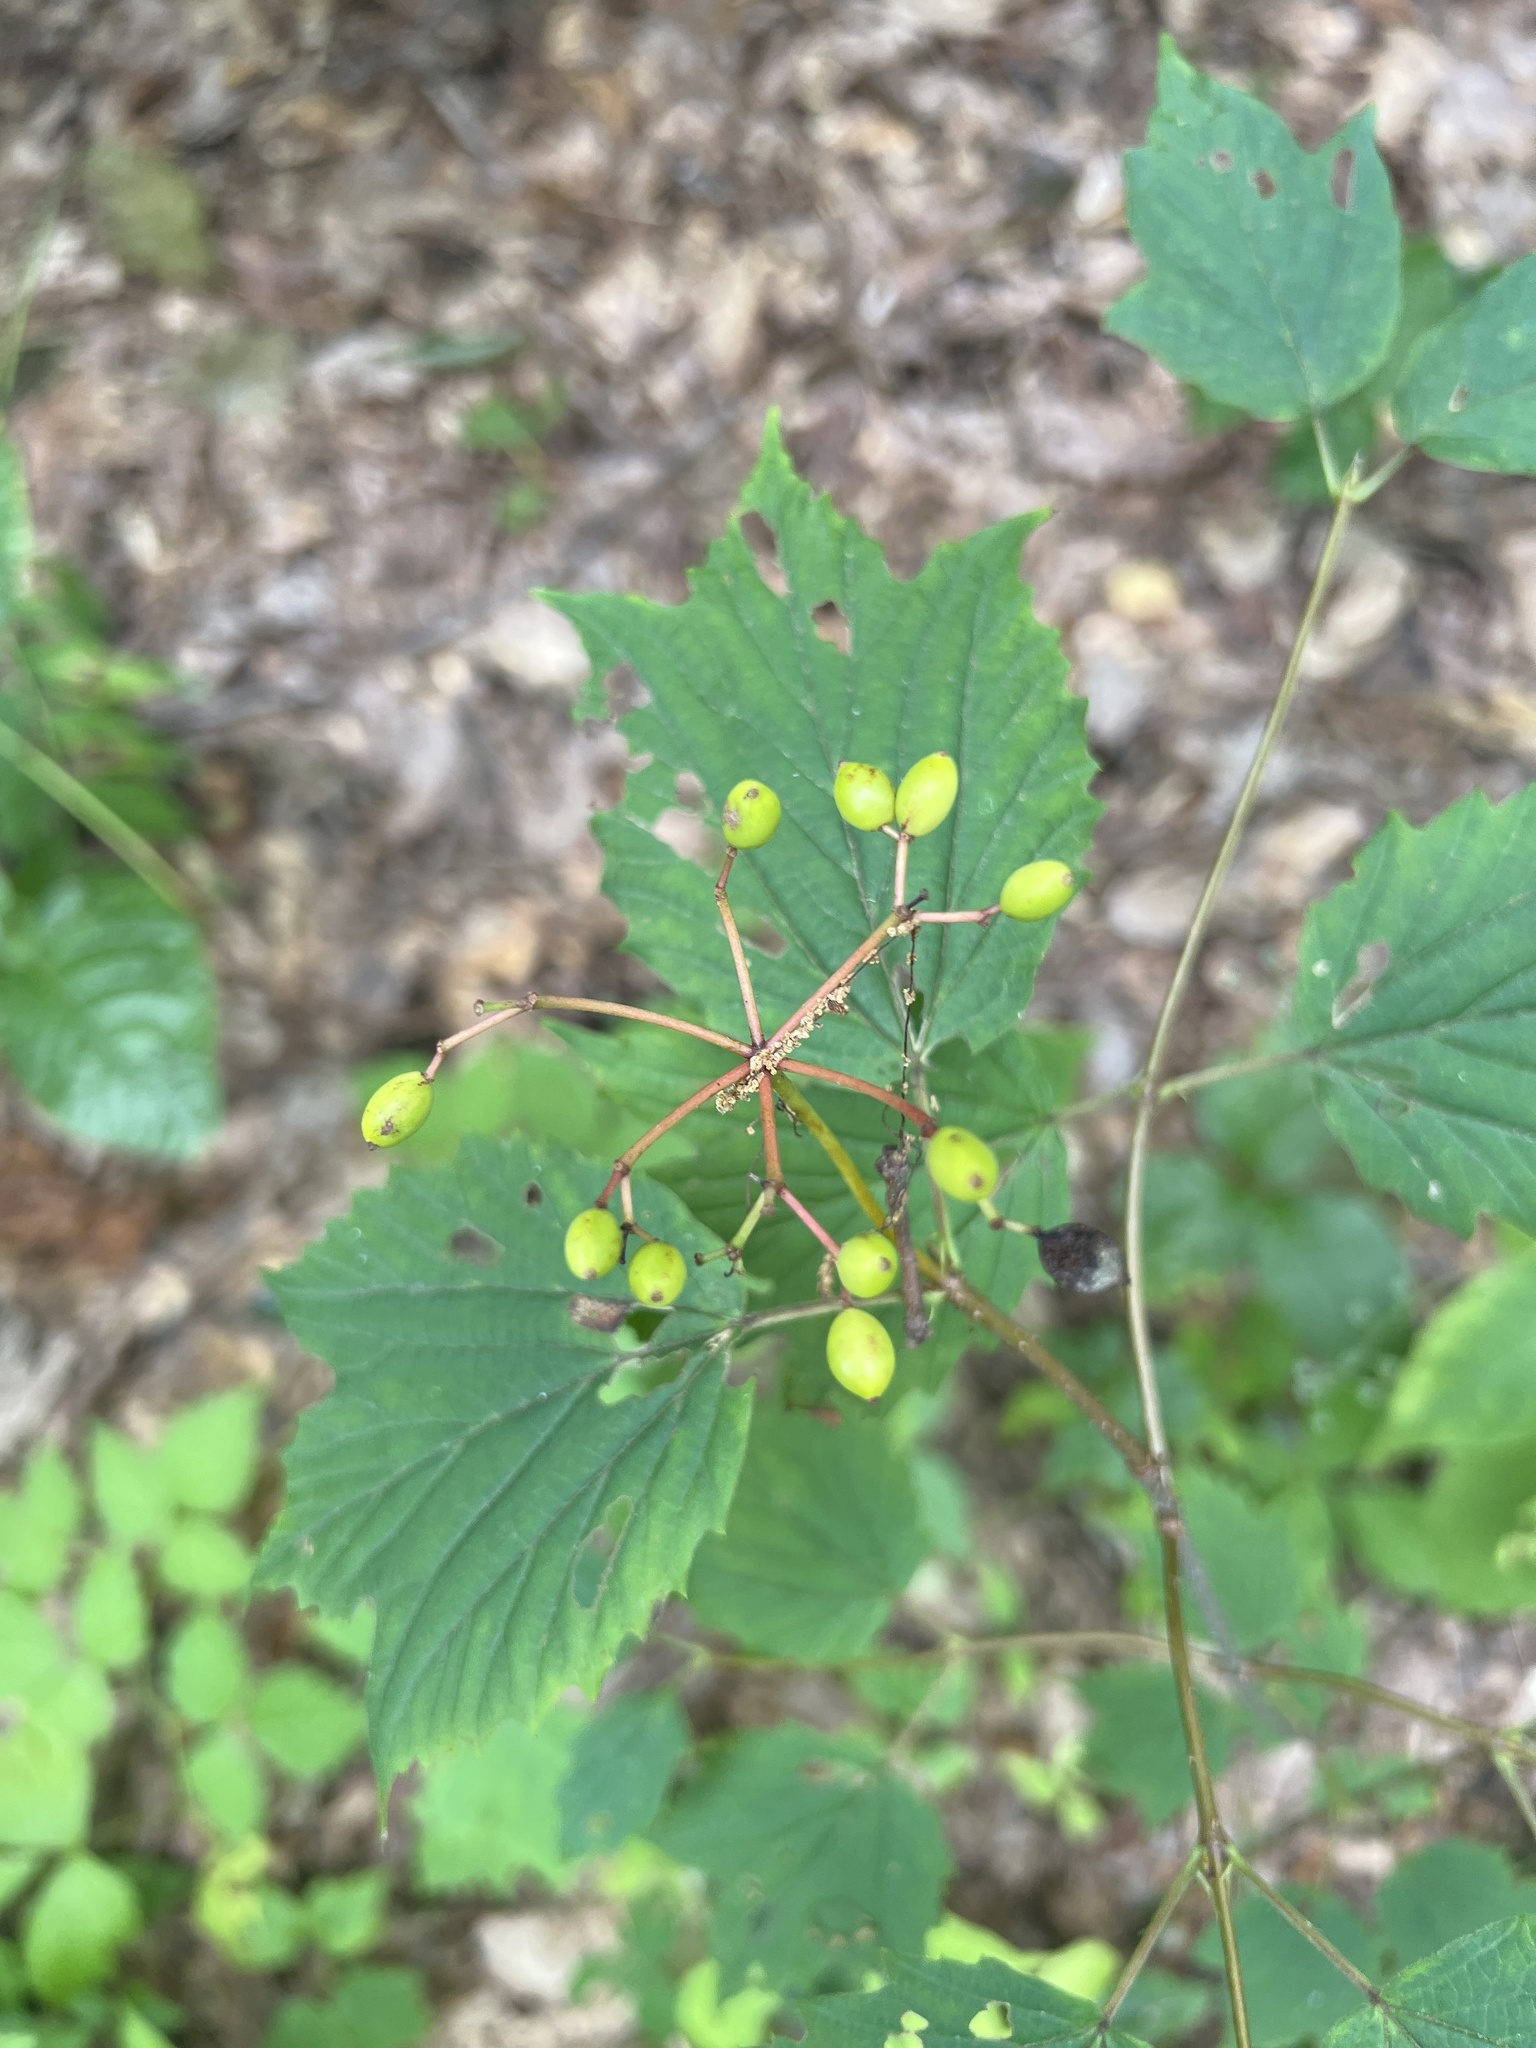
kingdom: Plantae
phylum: Tracheophyta
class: Magnoliopsida
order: Dipsacales
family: Viburnaceae
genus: Viburnum
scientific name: Viburnum acerifolium
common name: Dockmackie
